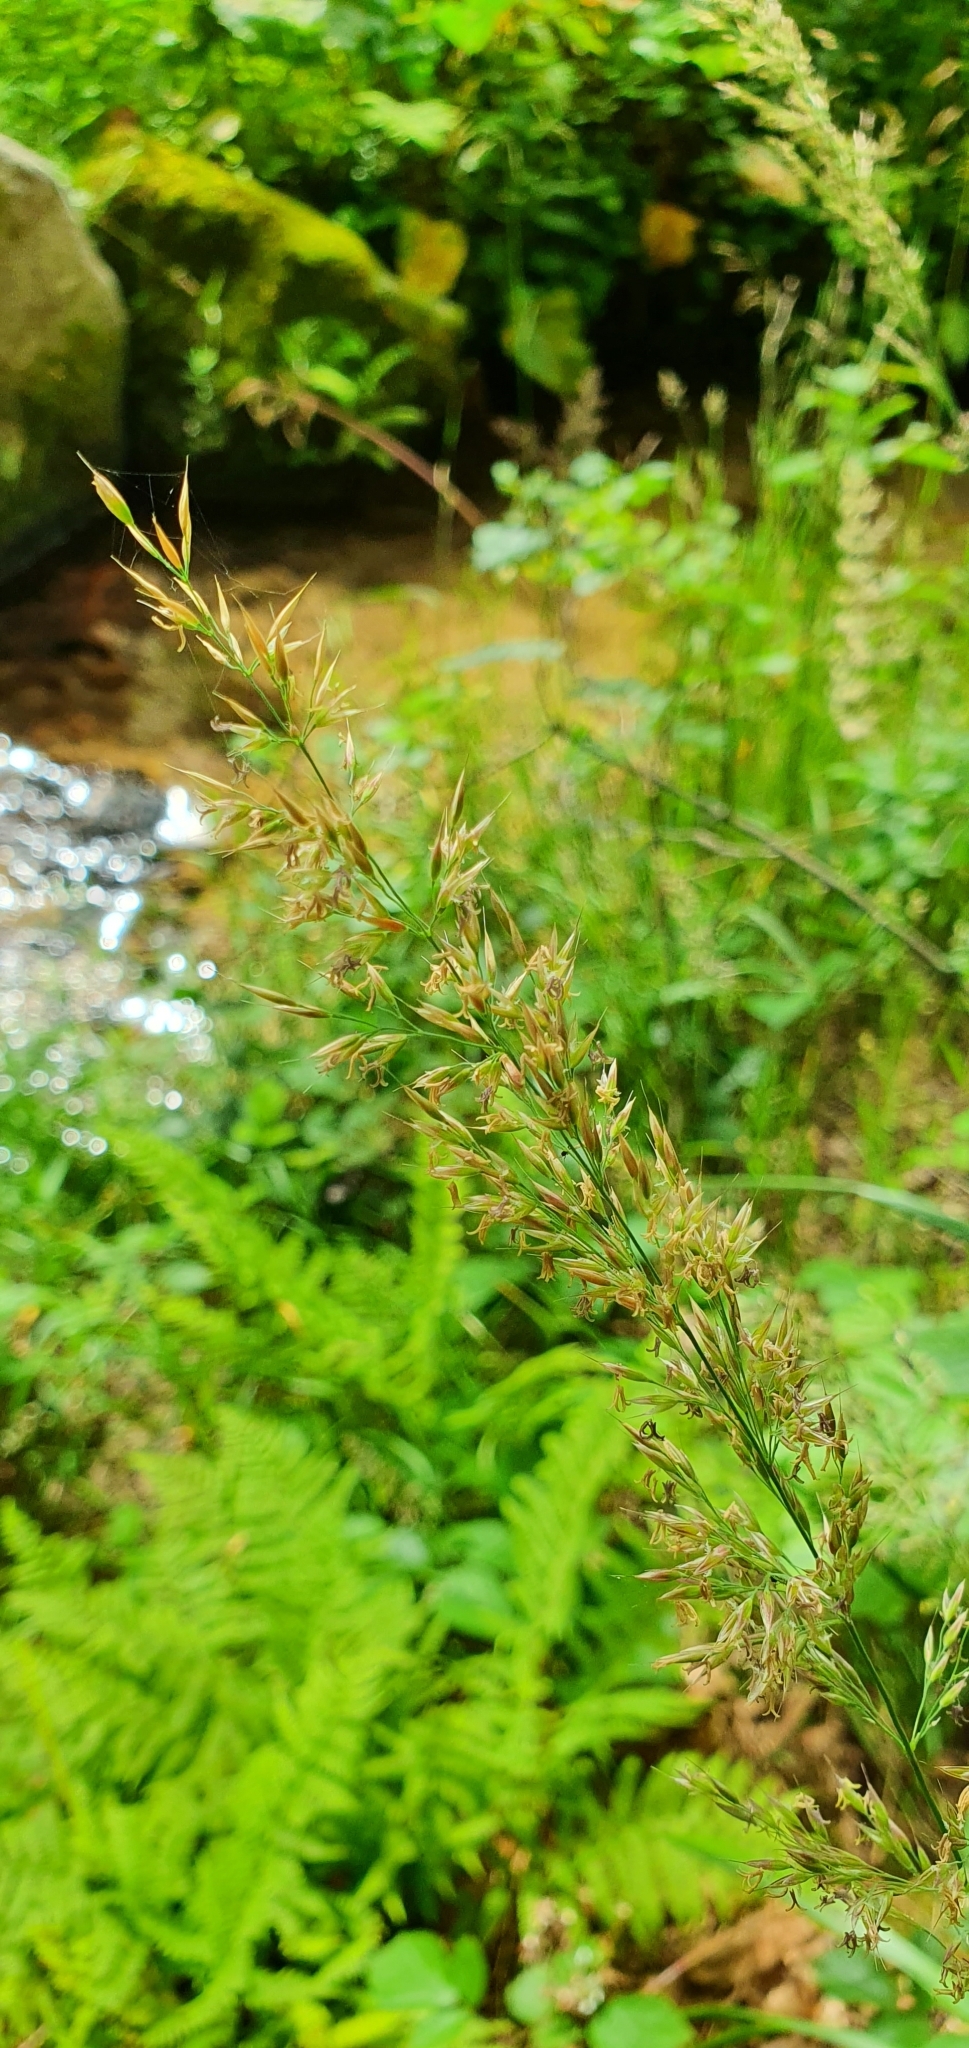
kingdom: Plantae
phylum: Tracheophyta
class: Liliopsida
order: Poales
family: Poaceae
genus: Arrhenatherum
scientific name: Arrhenatherum elatius
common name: Tall oatgrass
